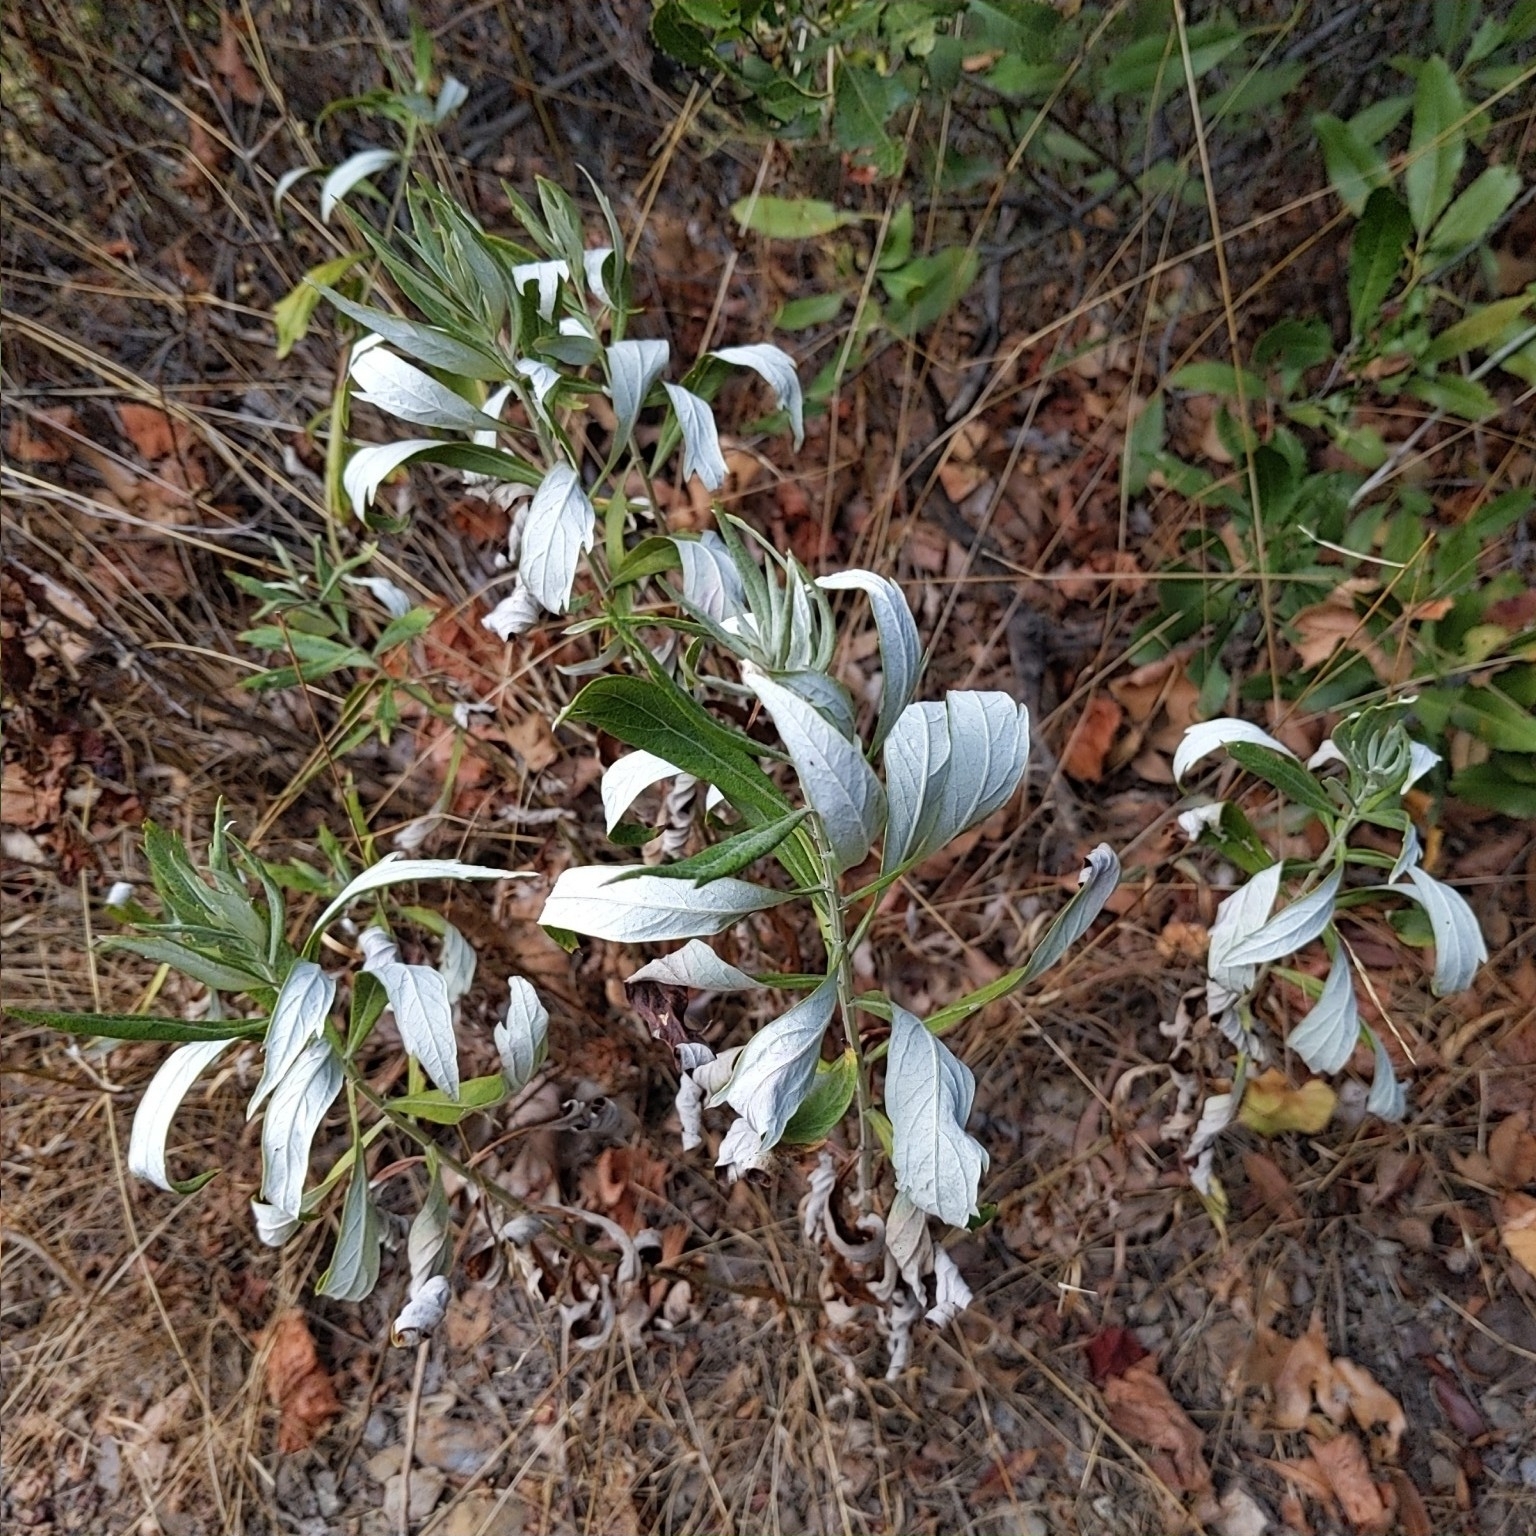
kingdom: Plantae
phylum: Tracheophyta
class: Magnoliopsida
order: Asterales
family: Asteraceae
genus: Artemisia
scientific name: Artemisia douglasiana
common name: Northwest mugwort
